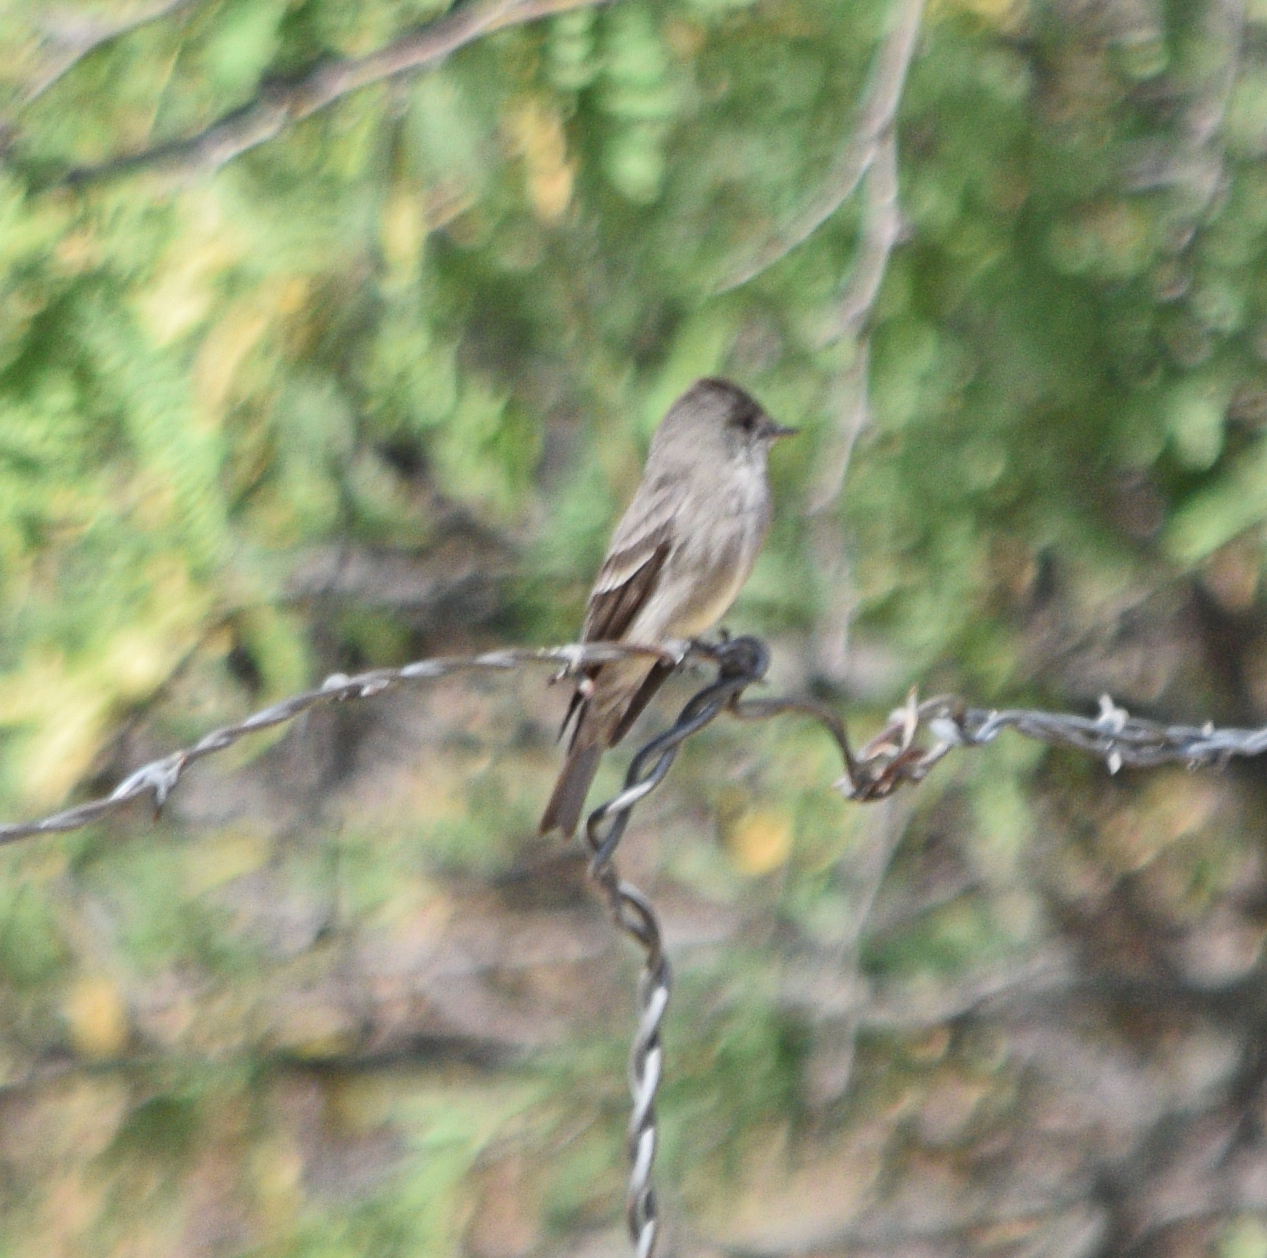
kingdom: Animalia
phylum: Chordata
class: Aves
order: Passeriformes
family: Tyrannidae
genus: Contopus
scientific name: Contopus sordidulus
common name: Western wood-pewee
